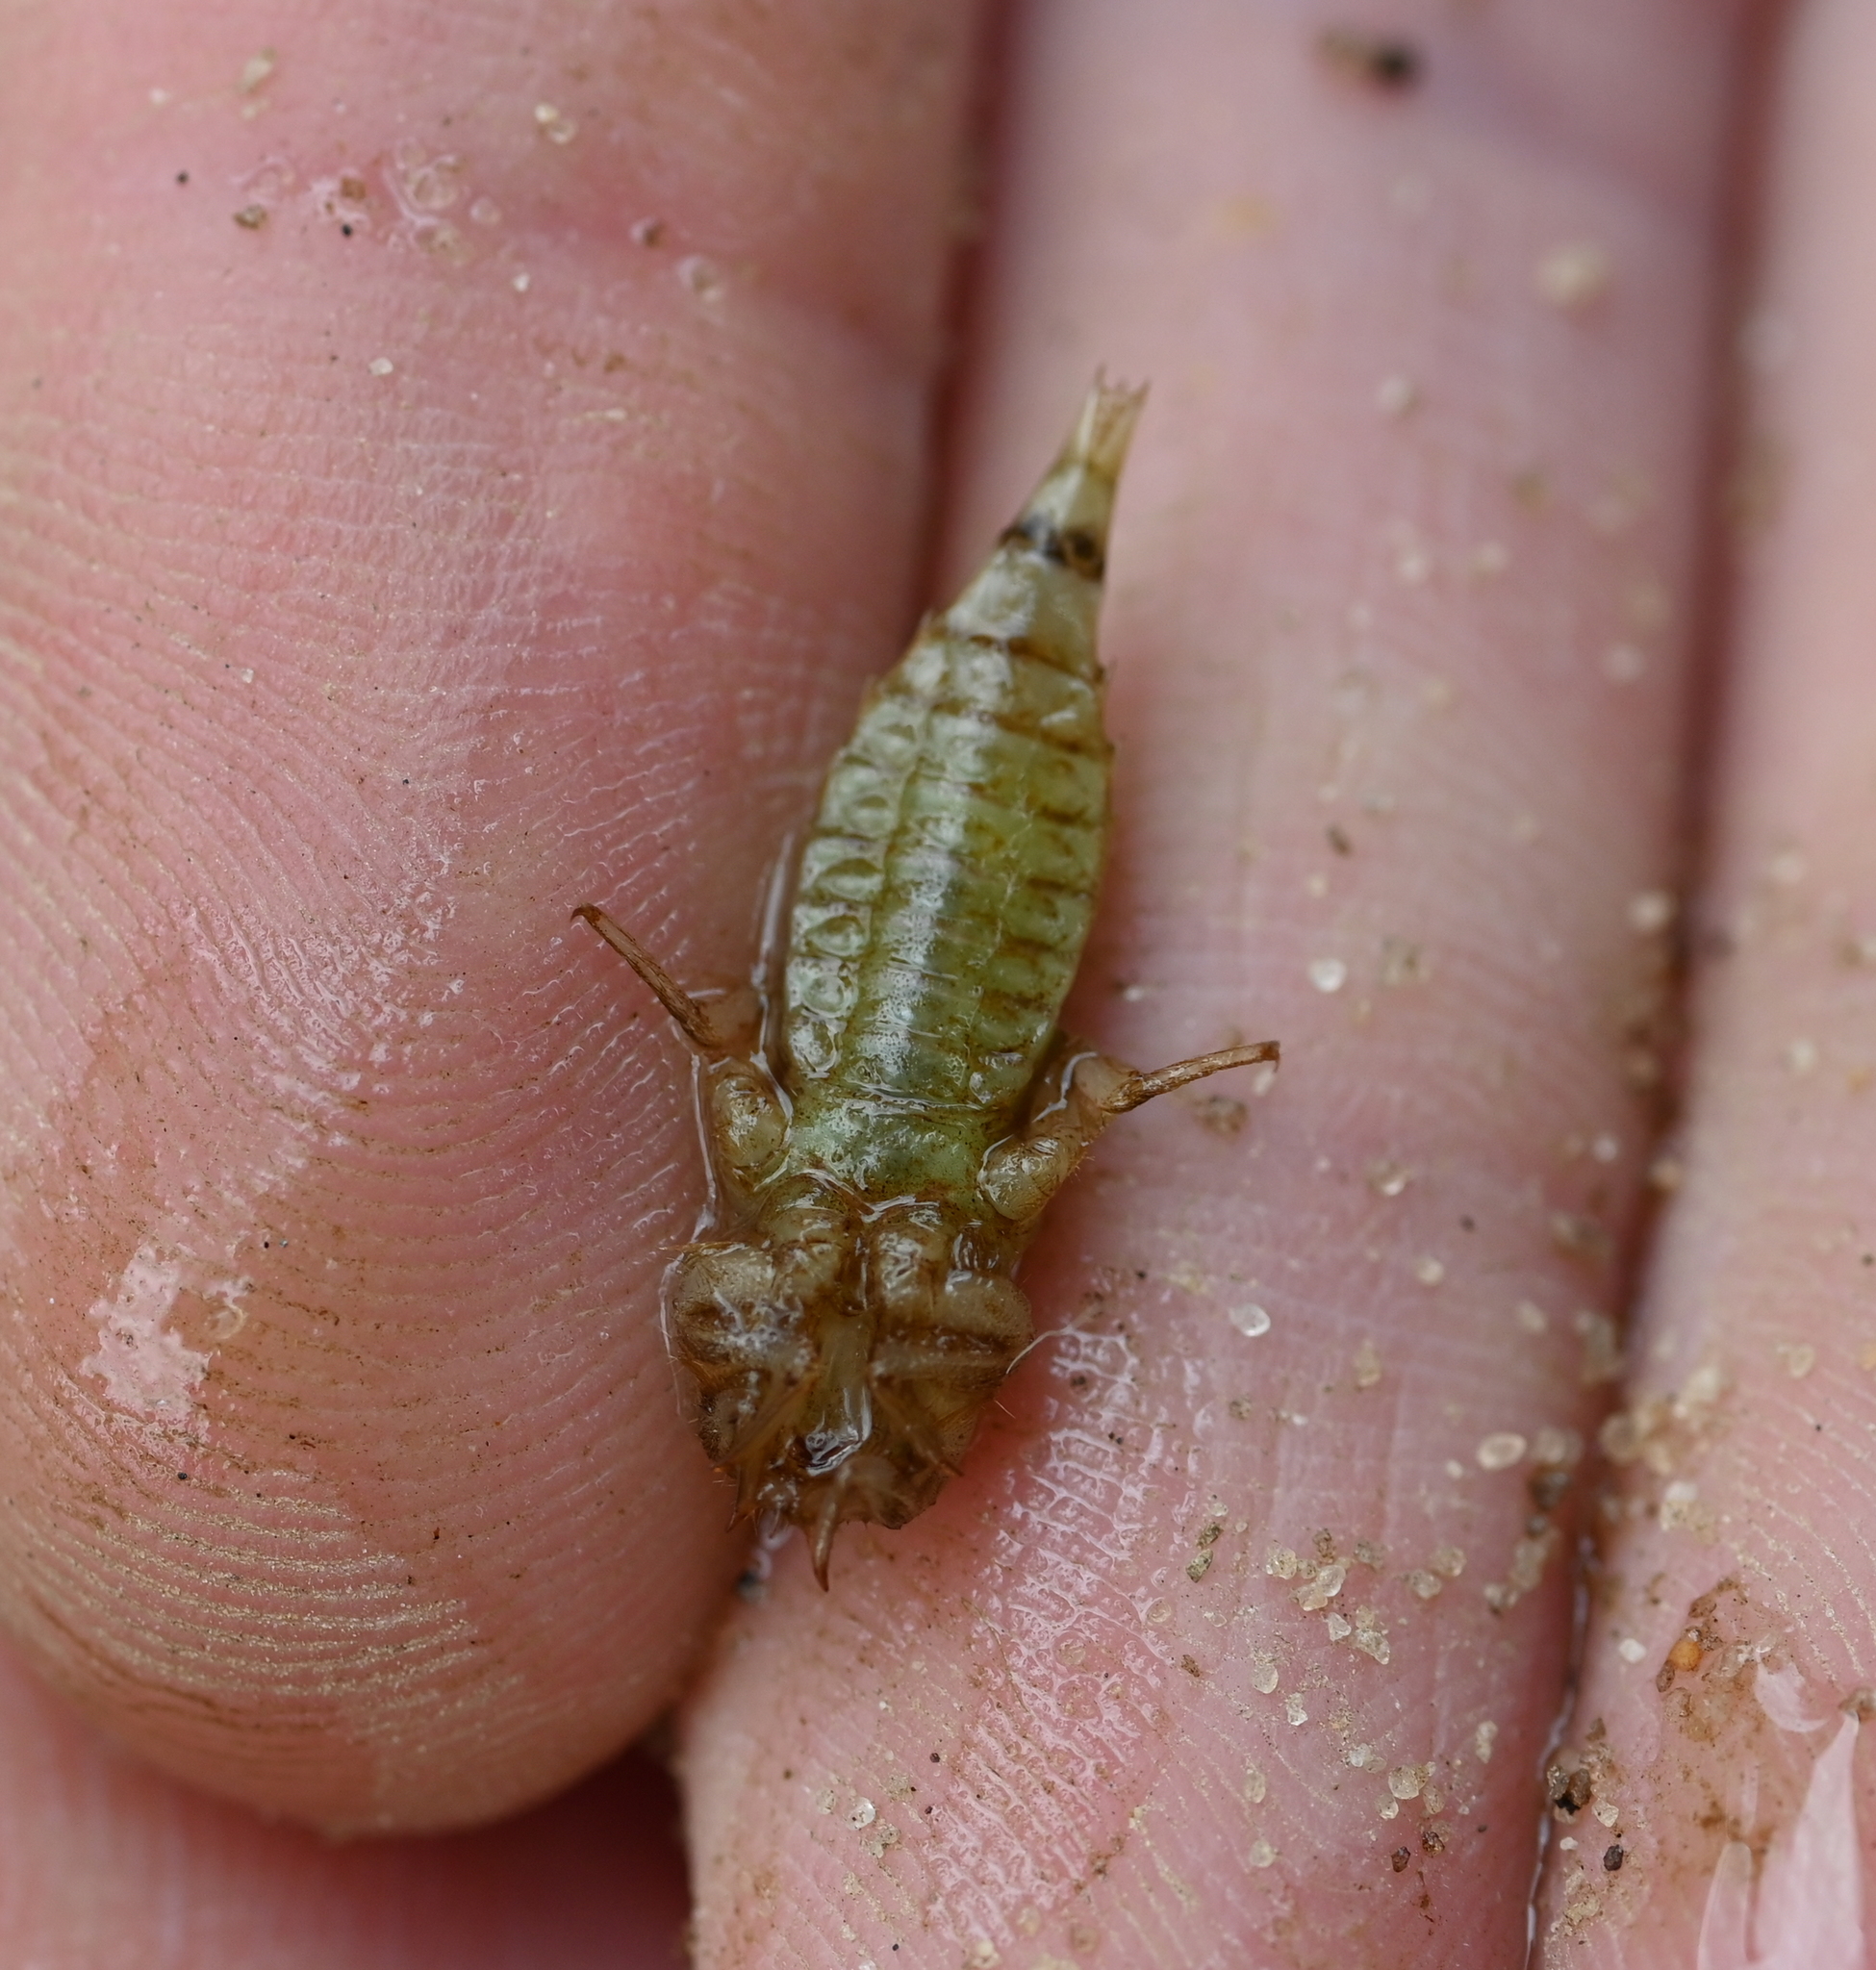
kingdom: Animalia
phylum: Arthropoda
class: Insecta
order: Odonata
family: Gomphidae
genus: Progomphus
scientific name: Progomphus obscurus
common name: Common sanddragon
